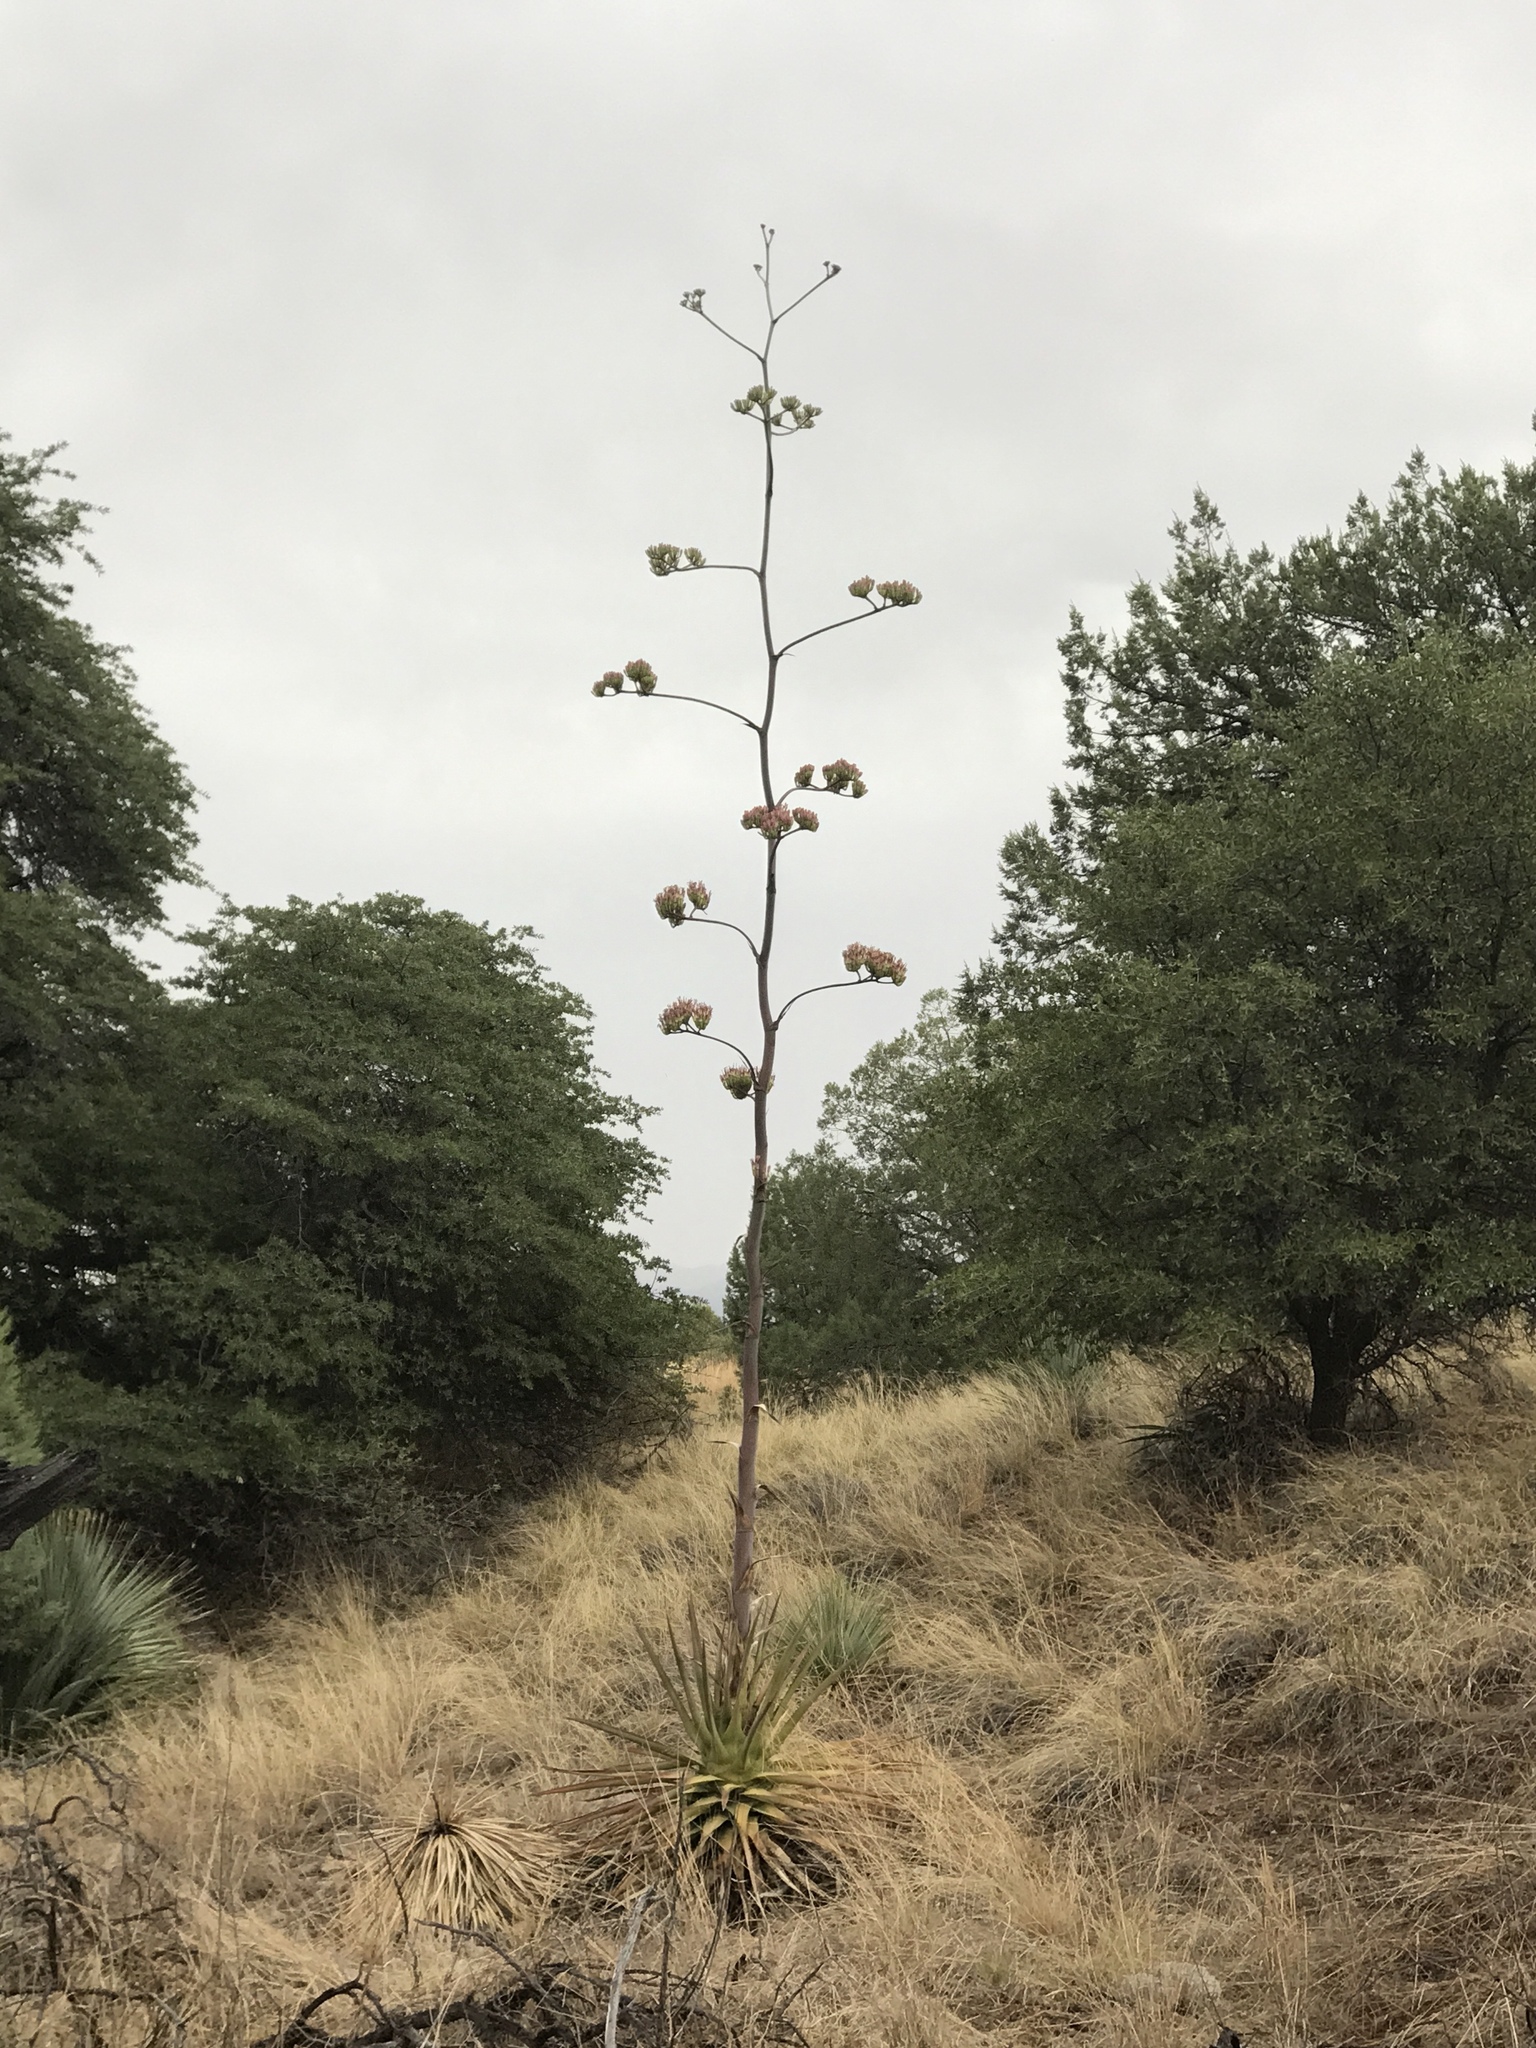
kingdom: Plantae
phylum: Tracheophyta
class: Liliopsida
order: Asparagales
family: Asparagaceae
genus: Agave
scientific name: Agave palmeri
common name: Palmer agave
